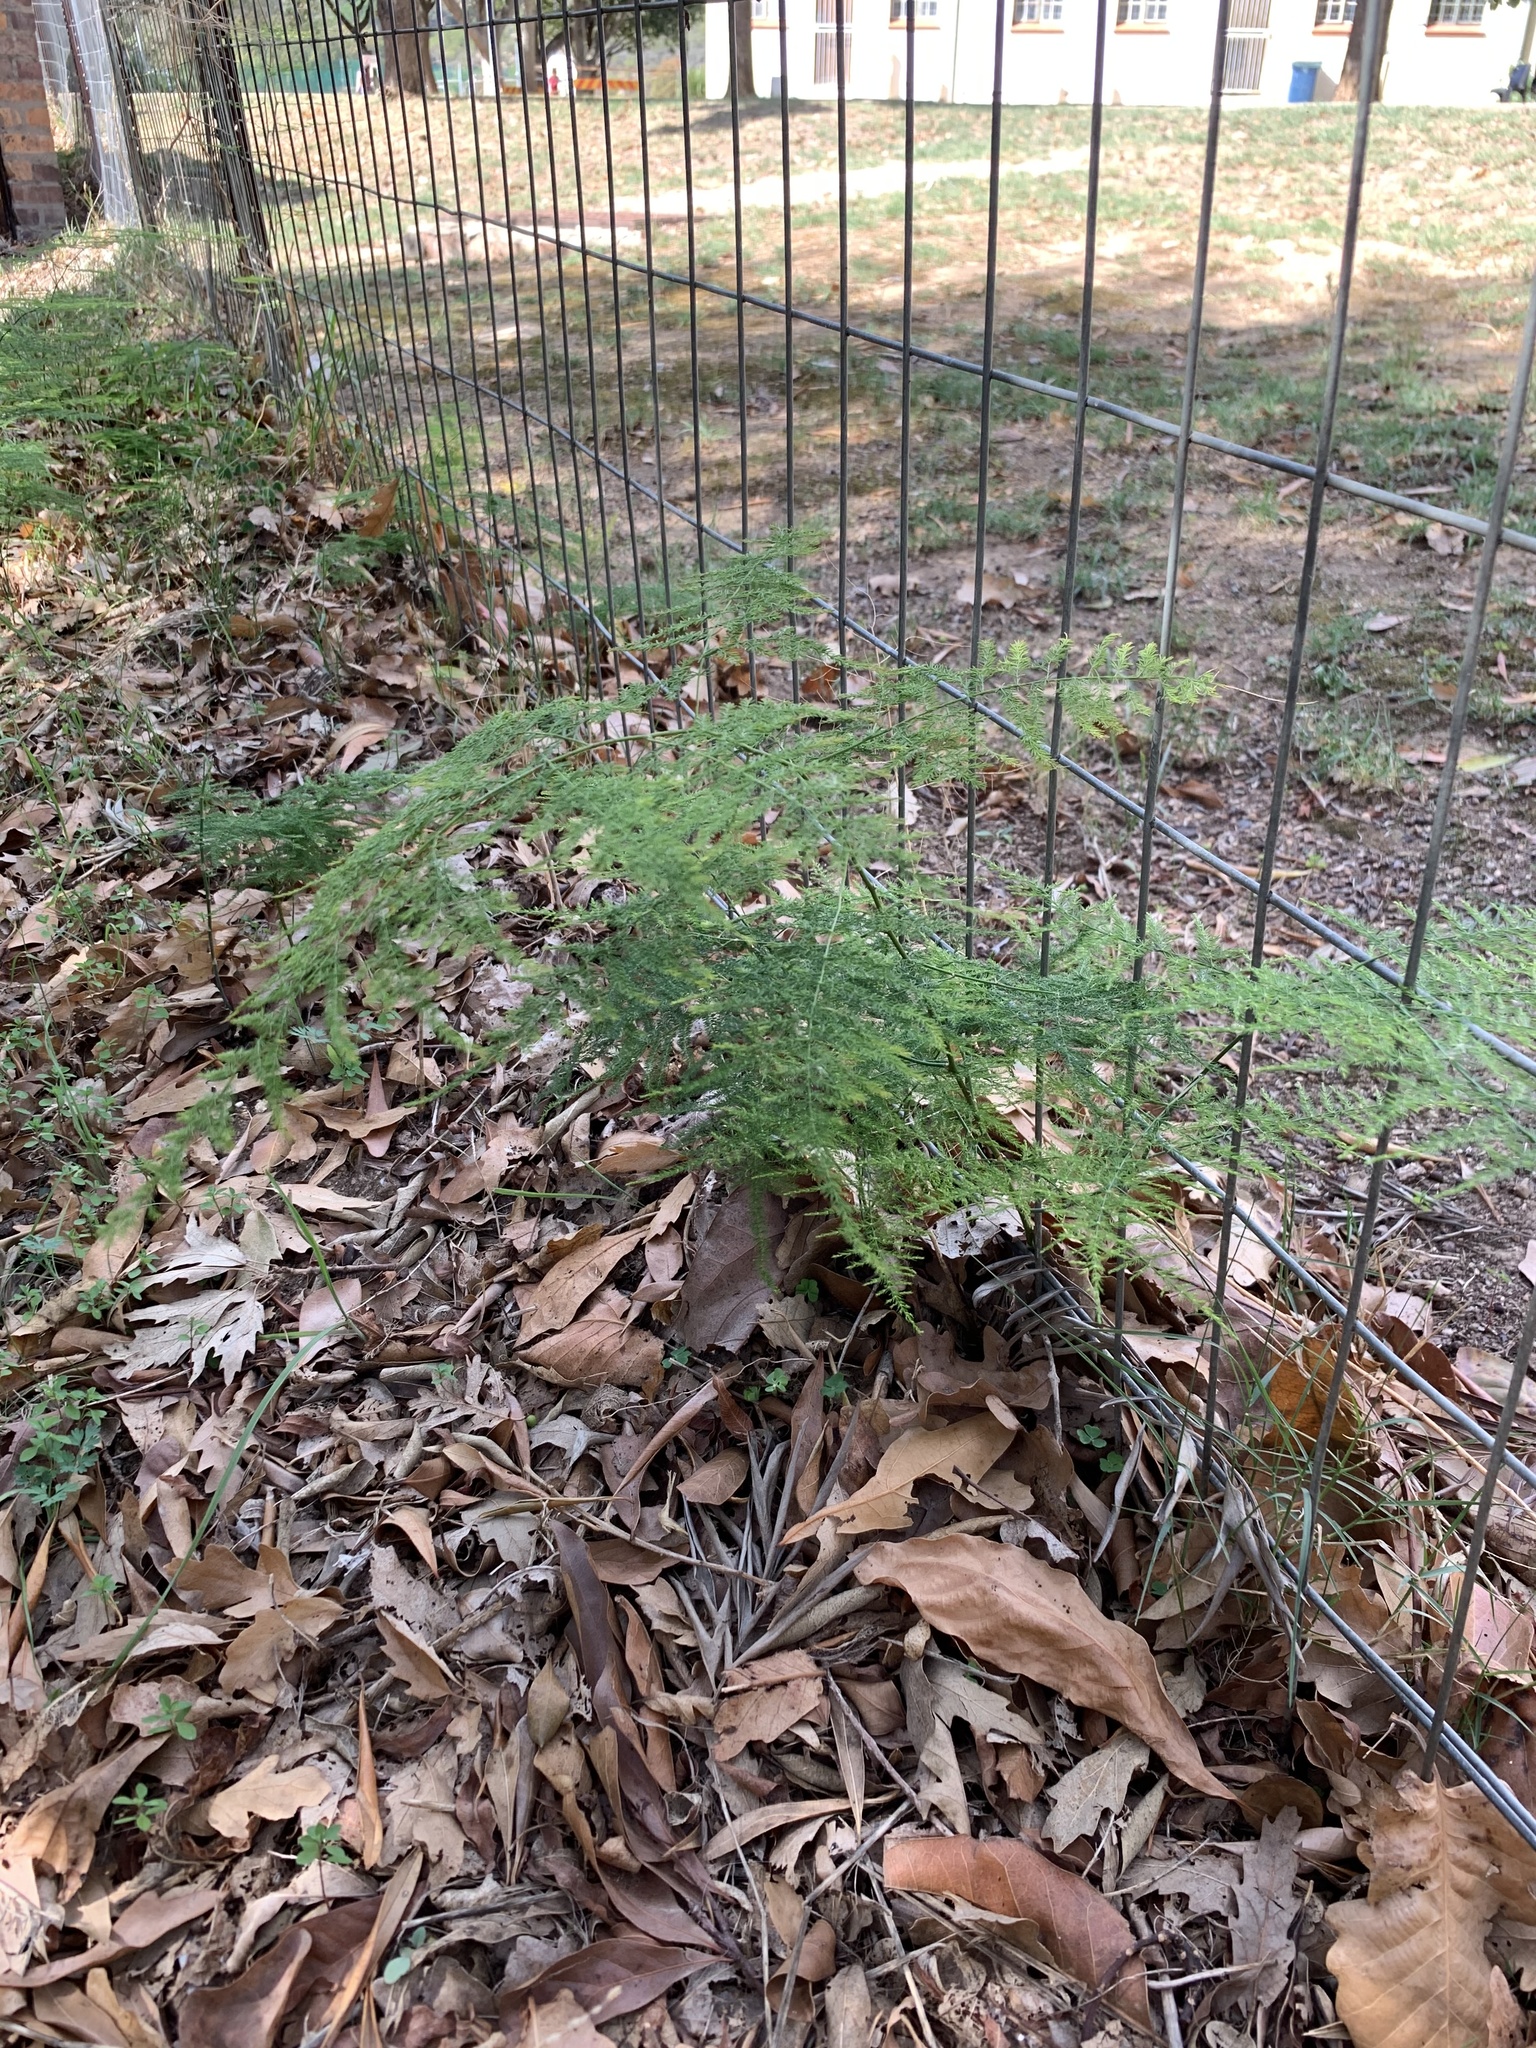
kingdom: Plantae
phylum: Tracheophyta
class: Liliopsida
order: Asparagales
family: Asparagaceae
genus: Asparagus
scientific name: Asparagus setaceus
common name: Common asparagus fern
